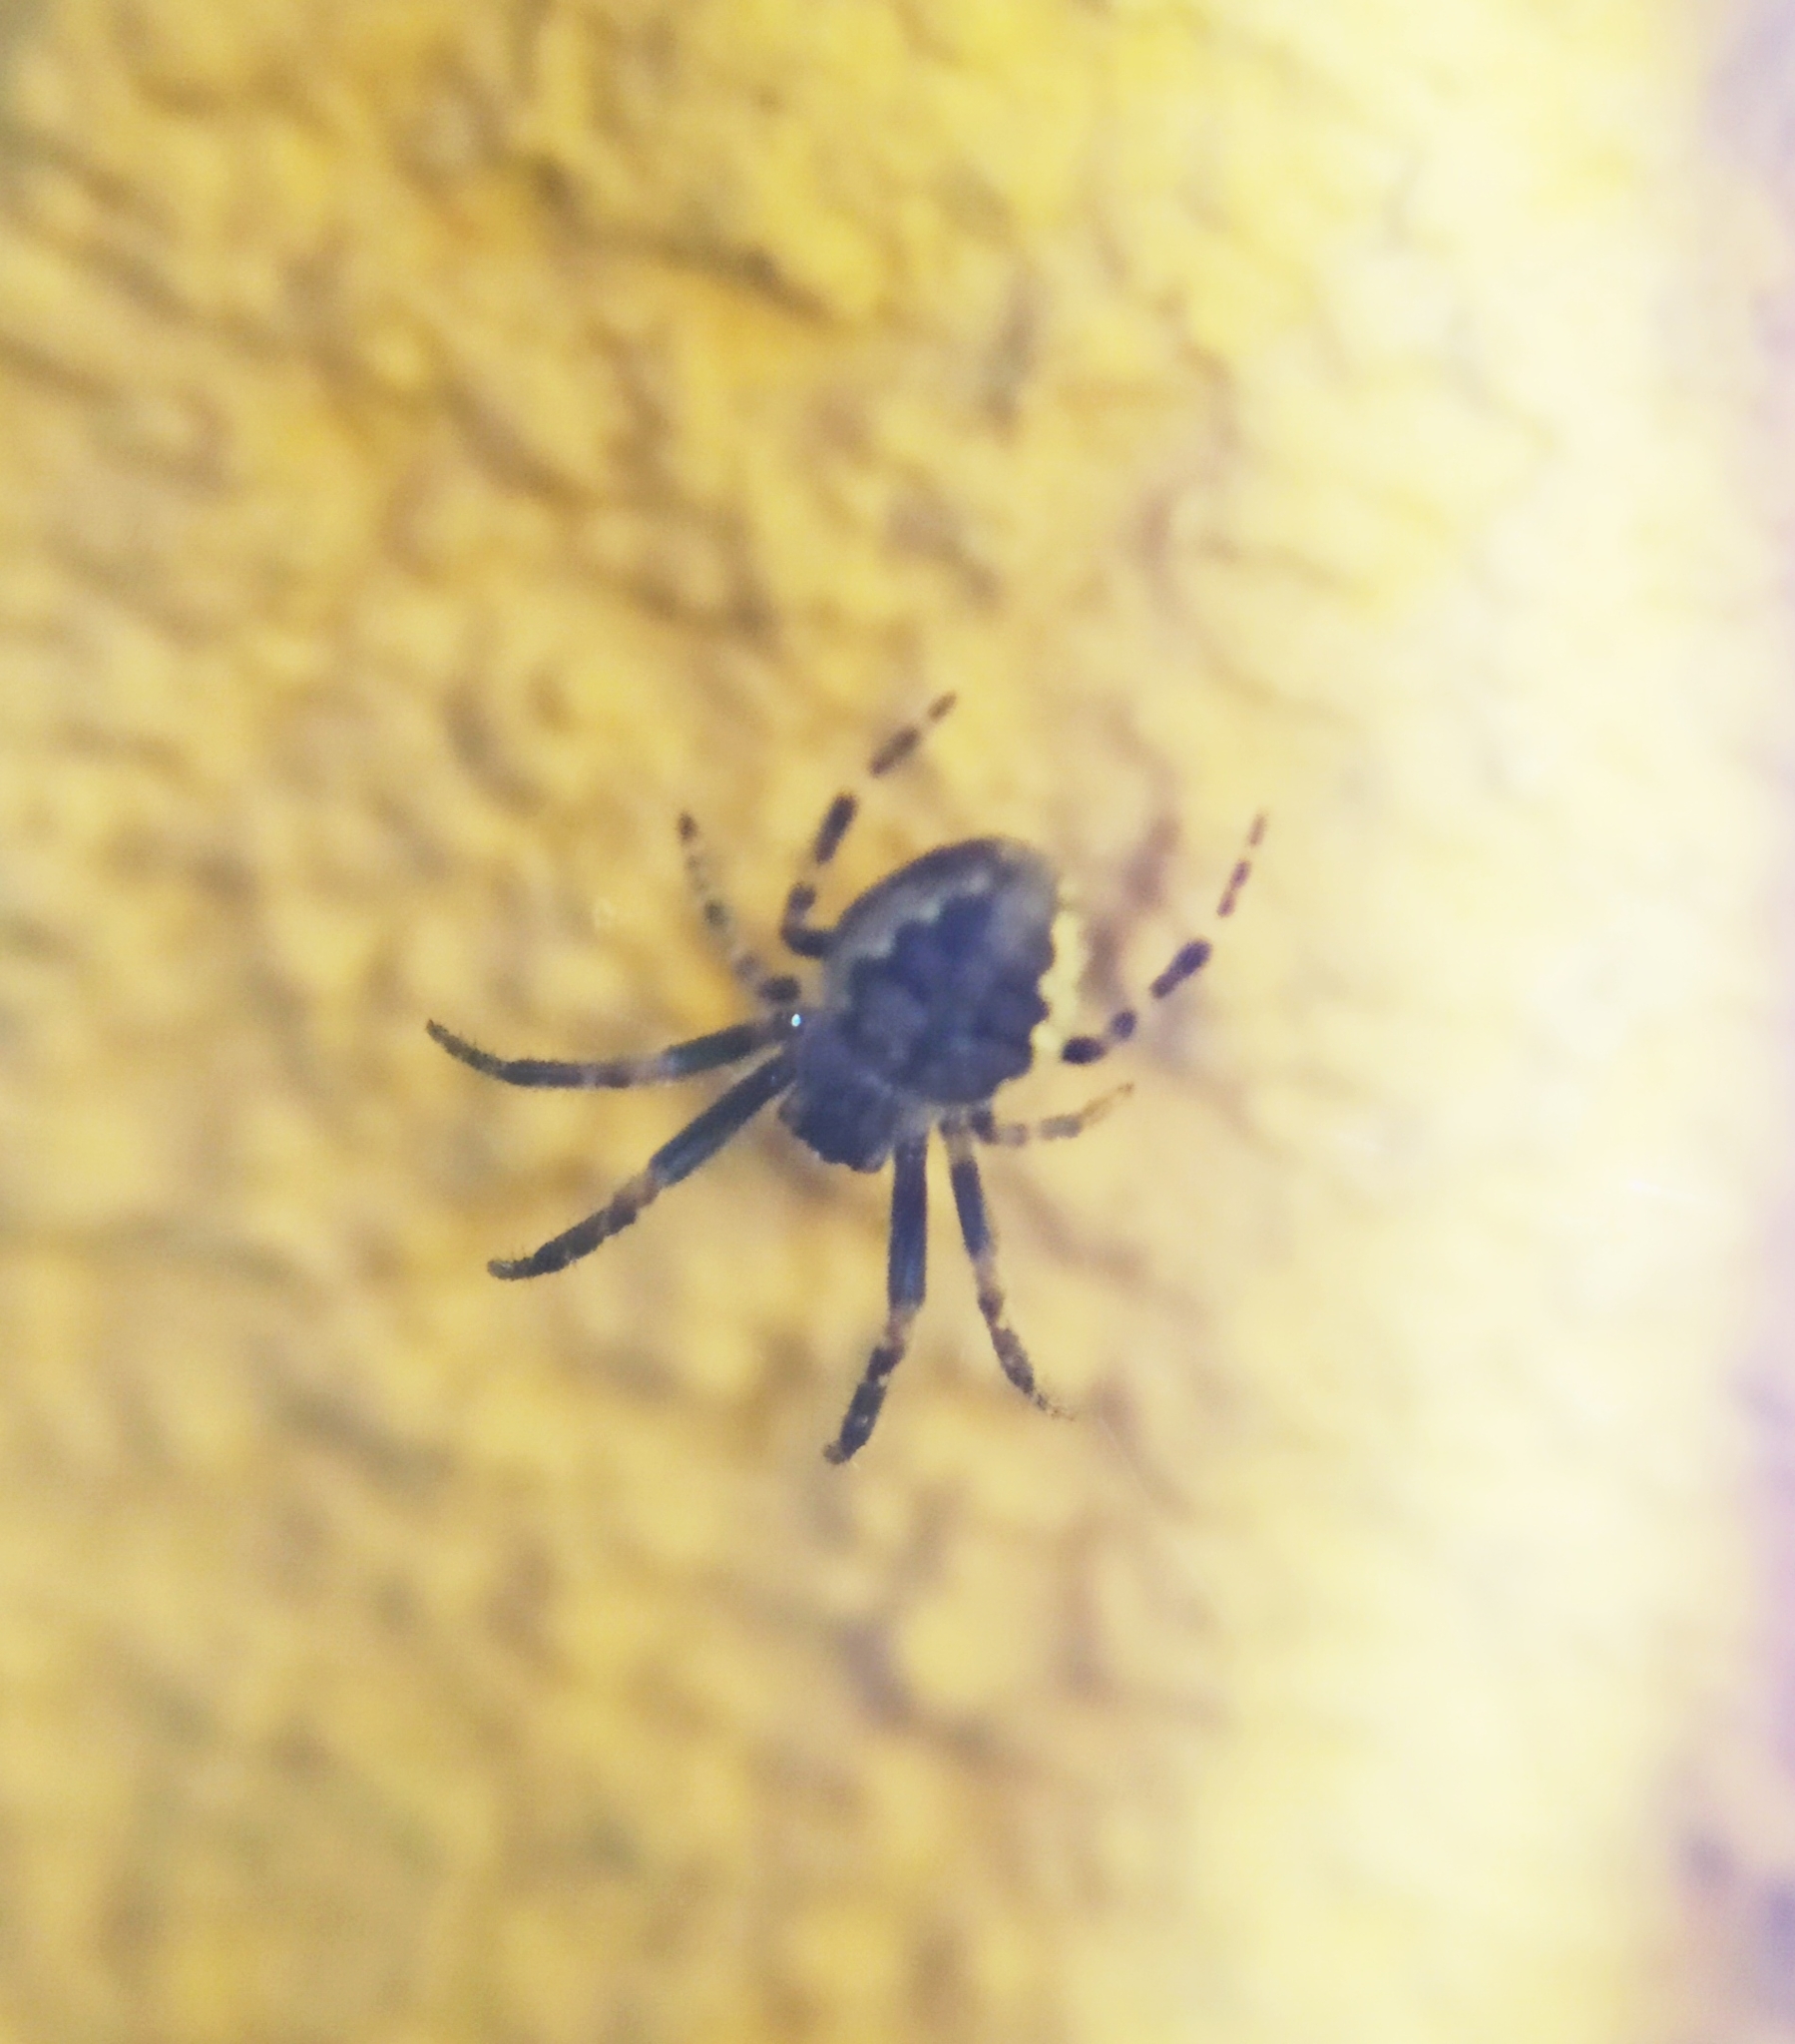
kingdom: Animalia
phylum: Arthropoda
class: Arachnida
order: Araneae
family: Araneidae
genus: Nuctenea
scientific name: Nuctenea umbratica
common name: Toad spider
